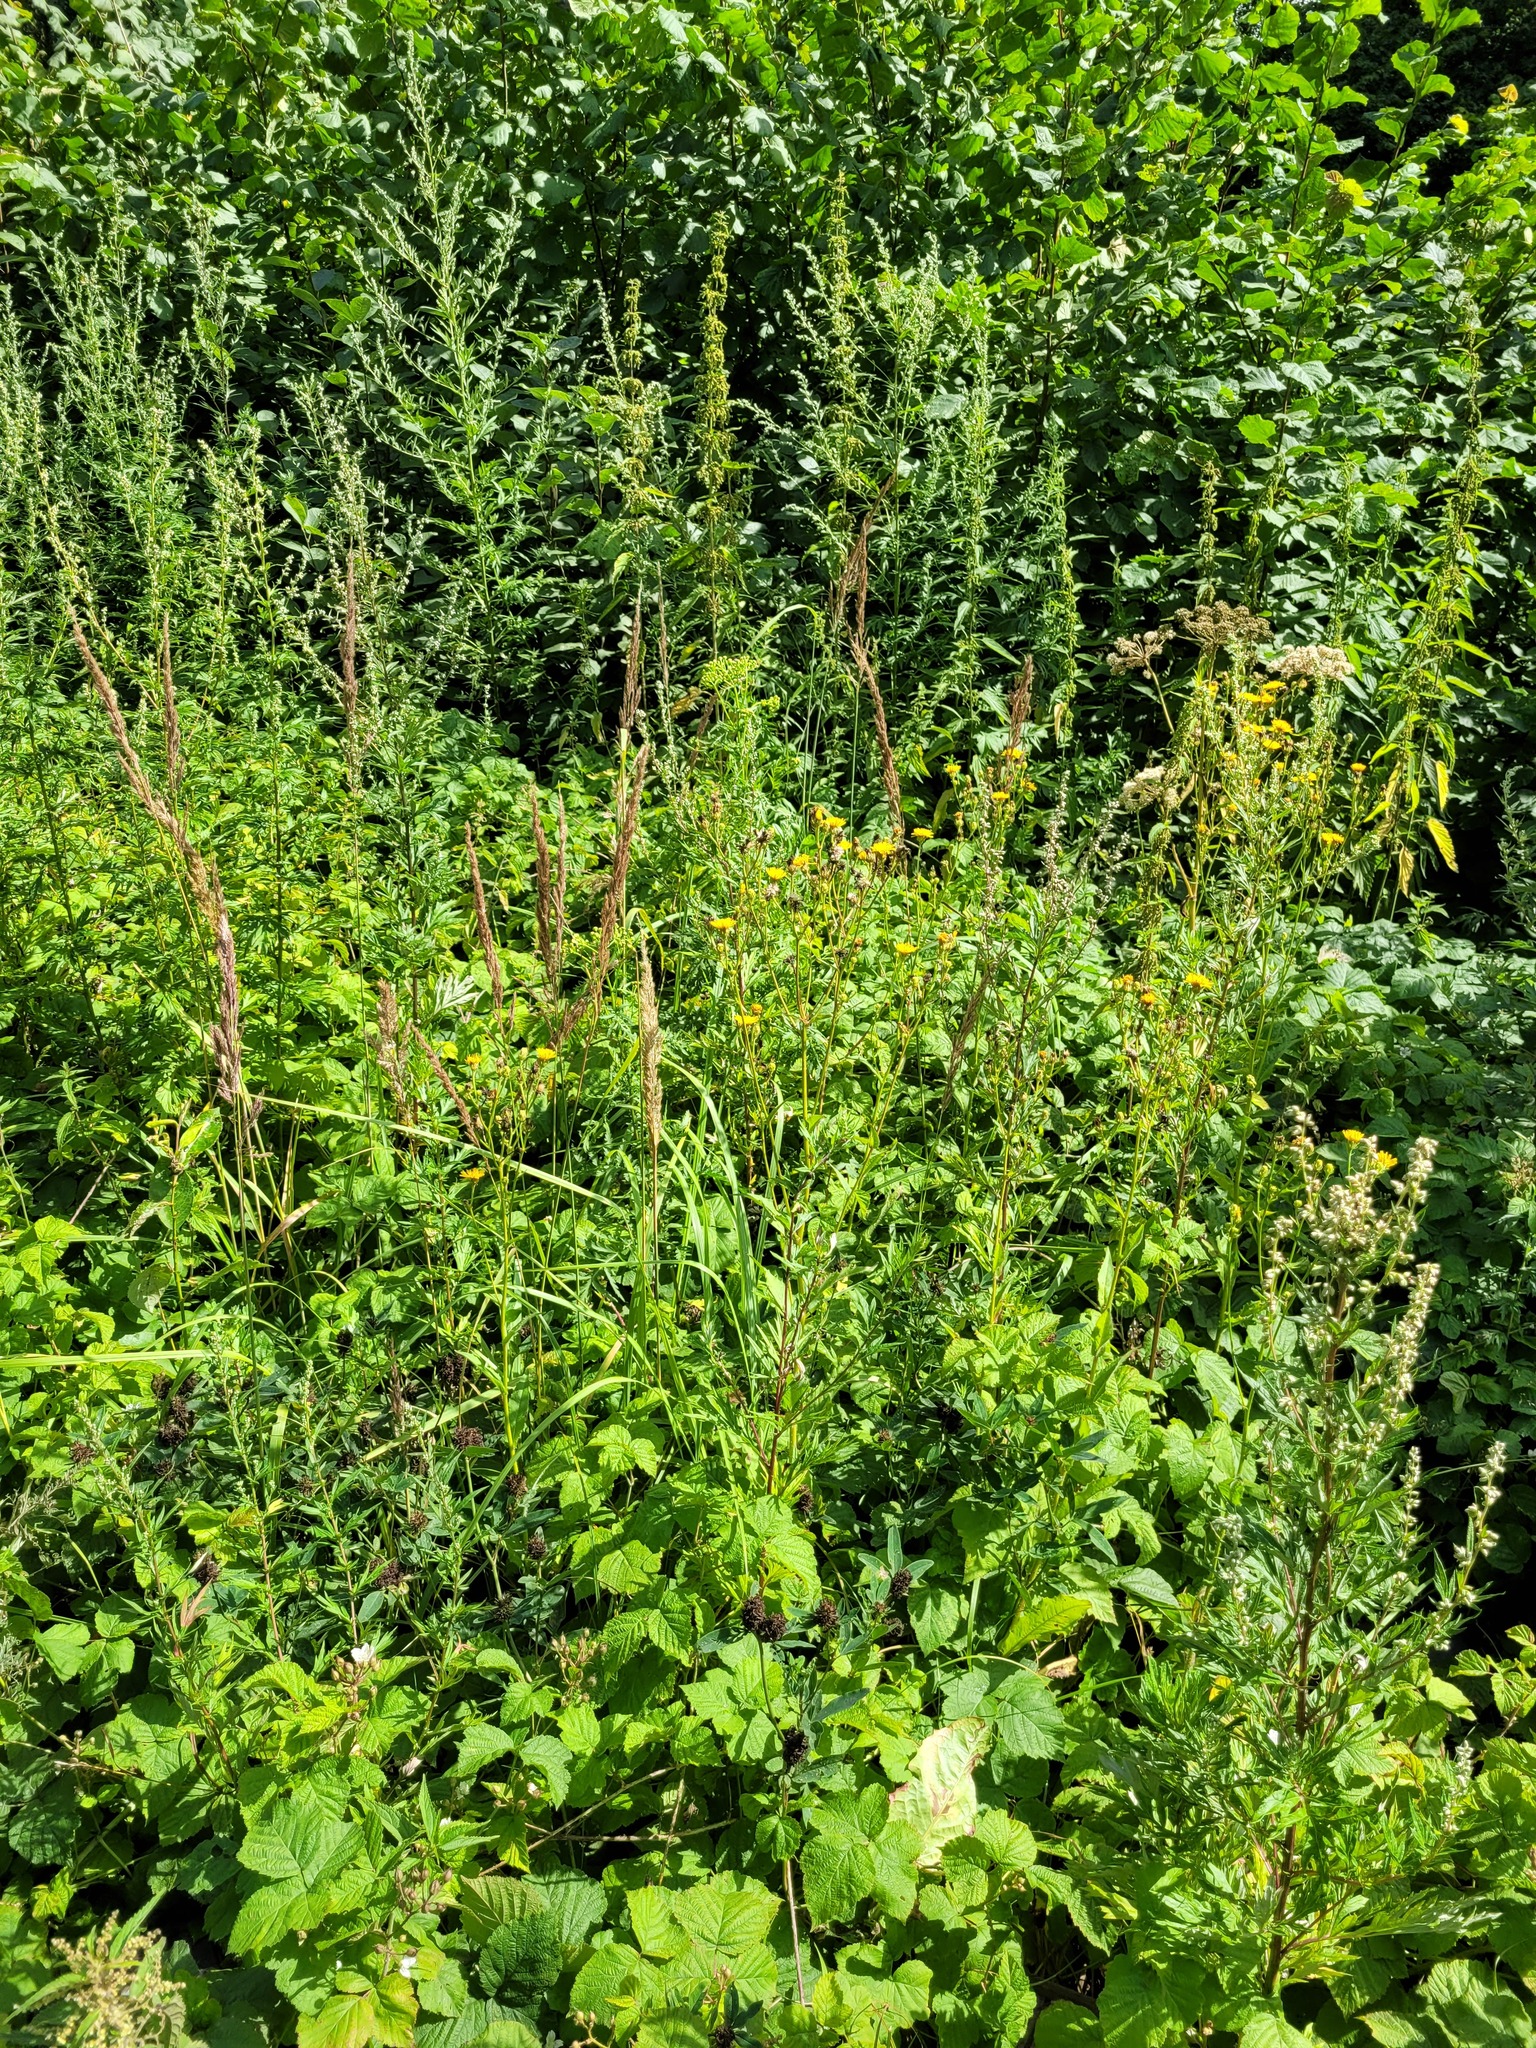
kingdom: Plantae
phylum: Tracheophyta
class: Magnoliopsida
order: Asterales
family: Asteraceae
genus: Picris
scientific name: Picris hieracioides
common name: Hawkweed oxtongue
